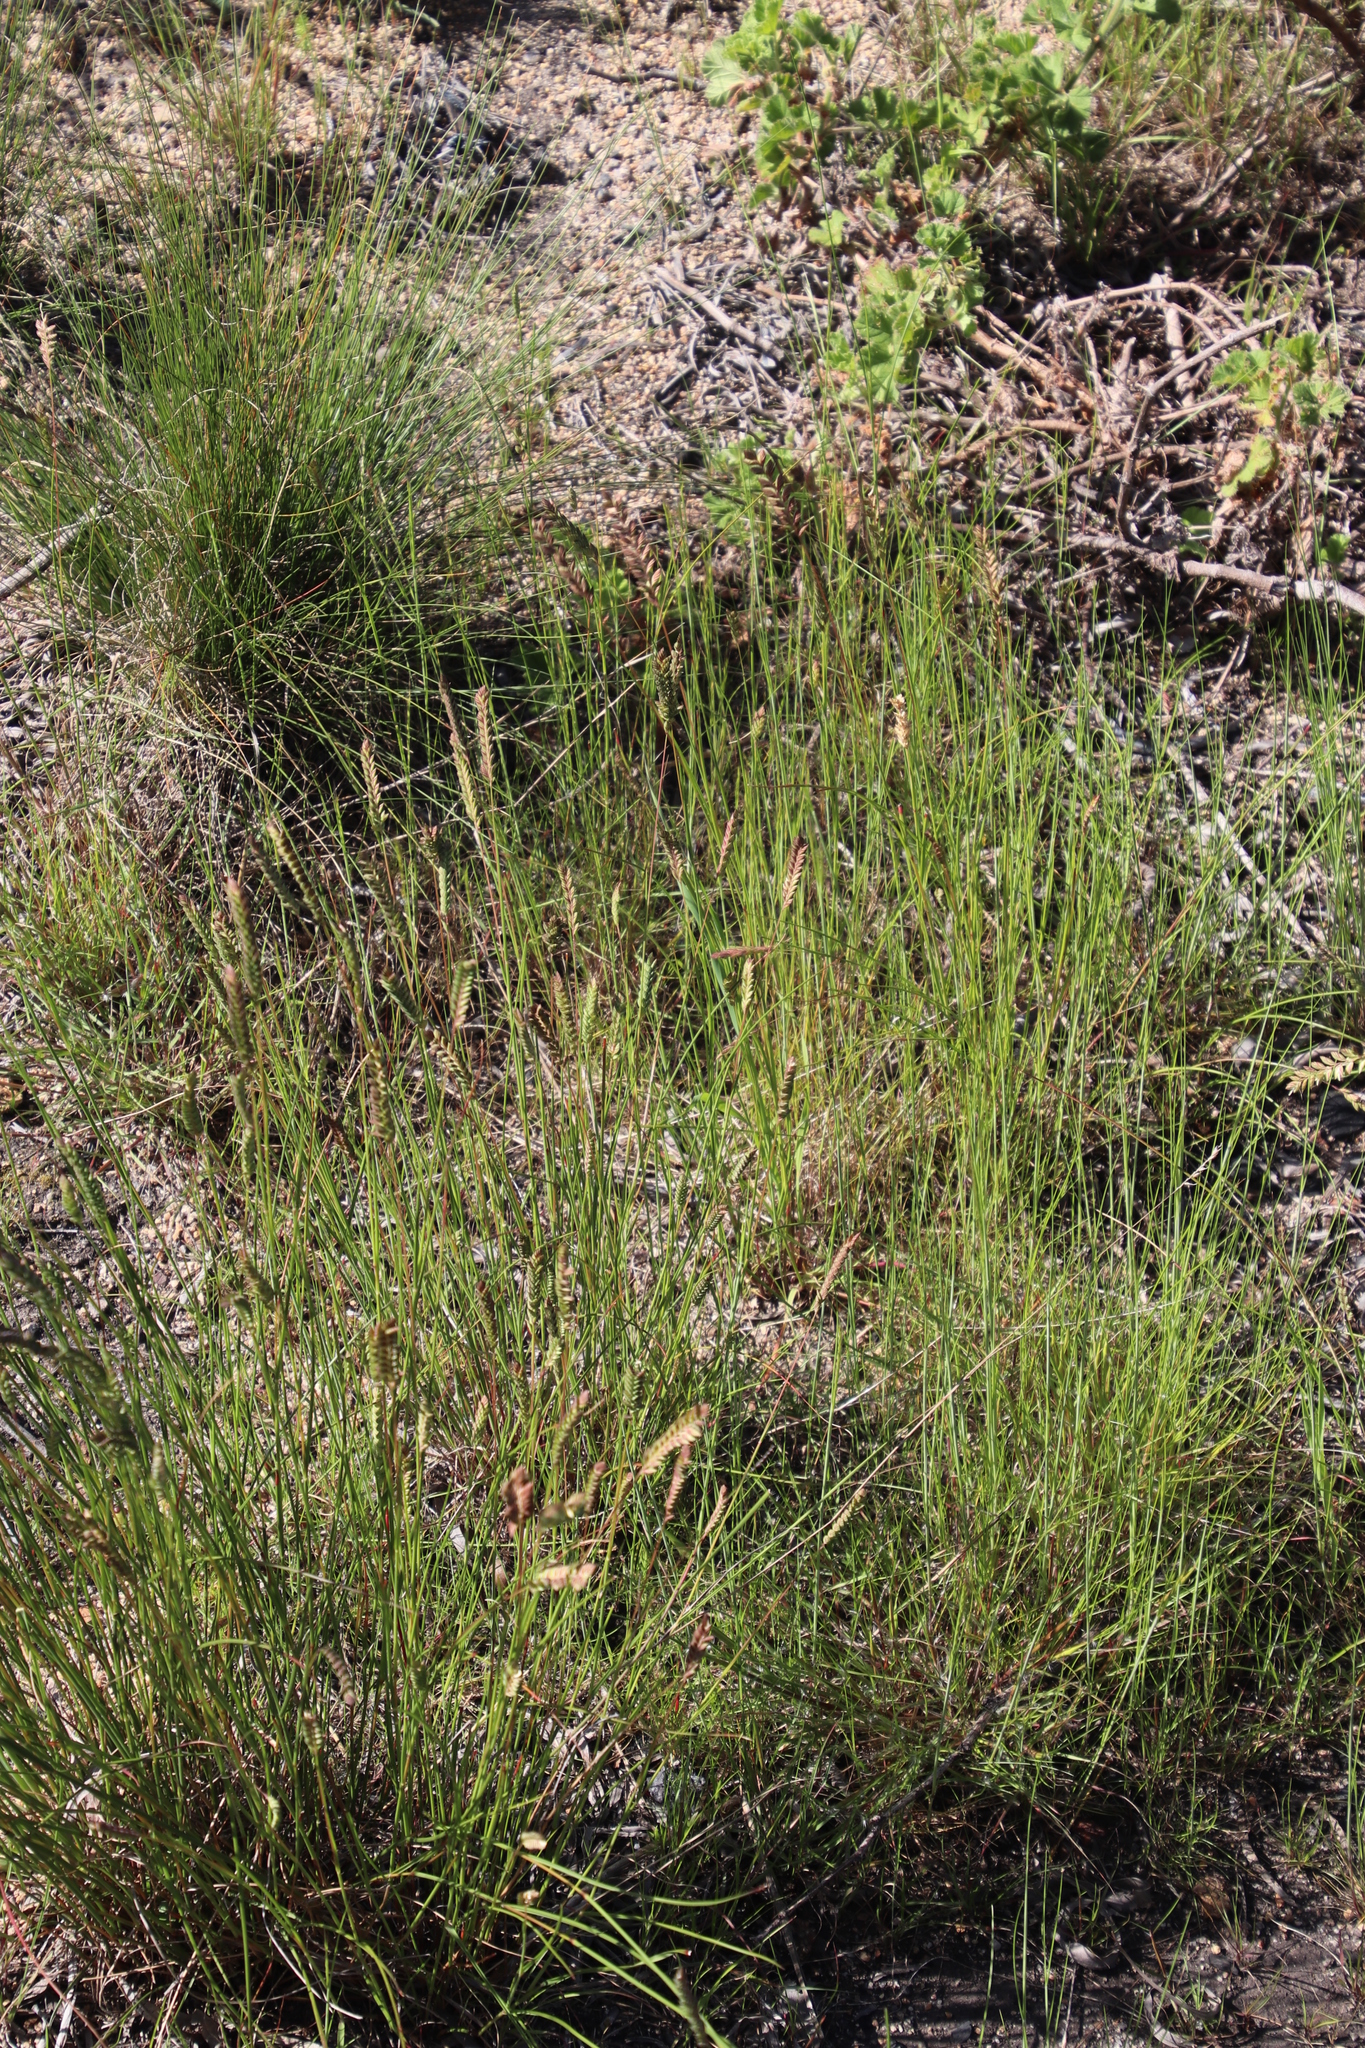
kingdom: Plantae
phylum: Tracheophyta
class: Liliopsida
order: Poales
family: Poaceae
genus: Tribolium
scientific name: Tribolium uniolae
